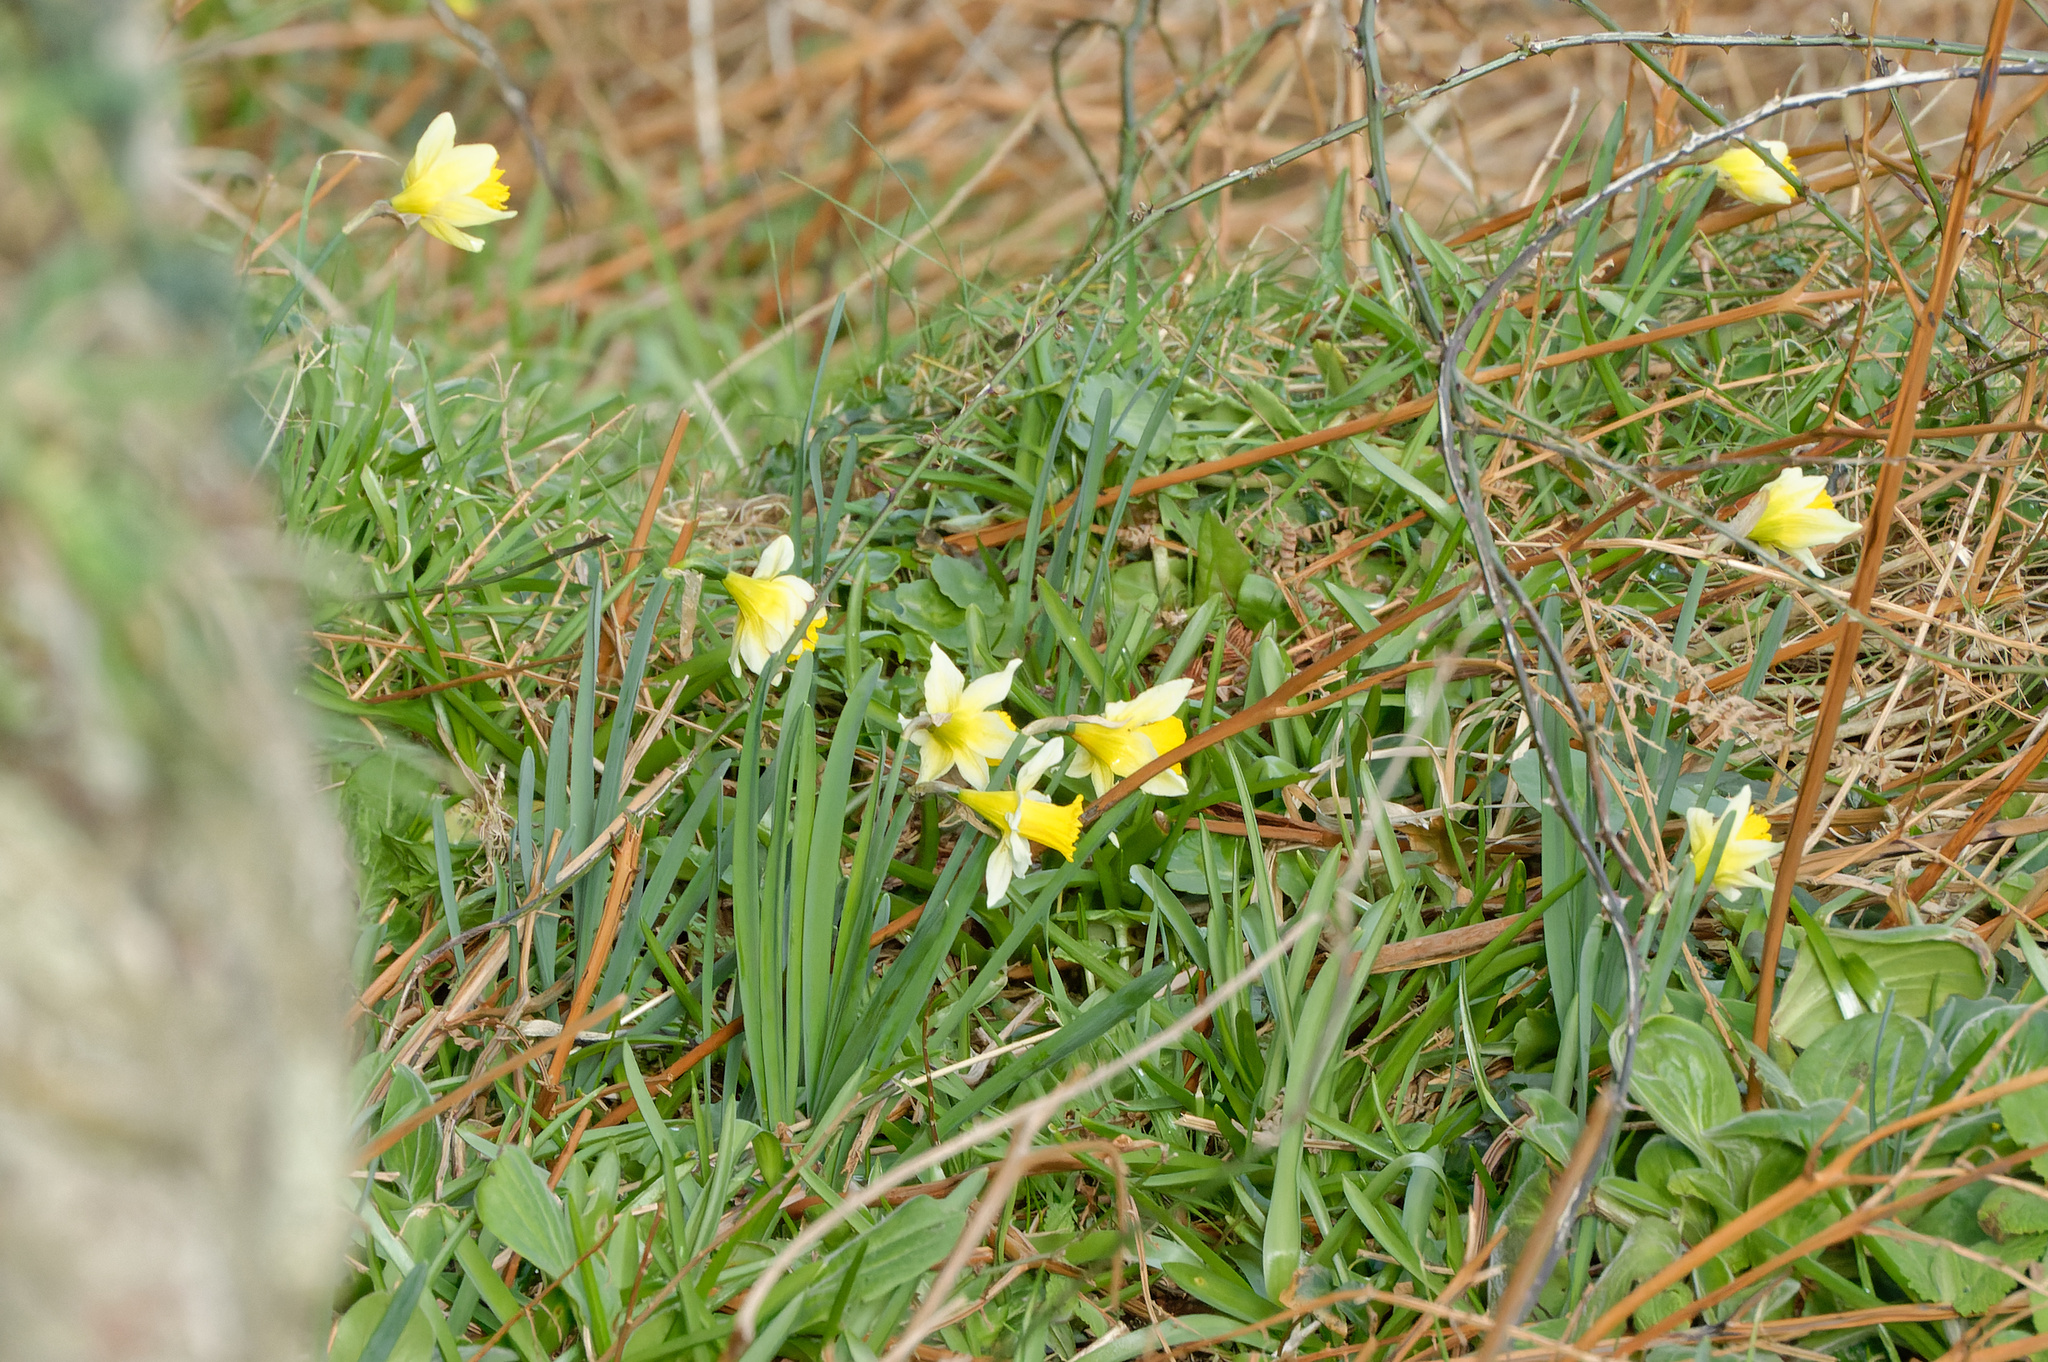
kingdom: Plantae
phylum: Tracheophyta
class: Liliopsida
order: Asparagales
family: Amaryllidaceae
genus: Narcissus
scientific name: Narcissus pseudonarcissus
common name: Daffodil
